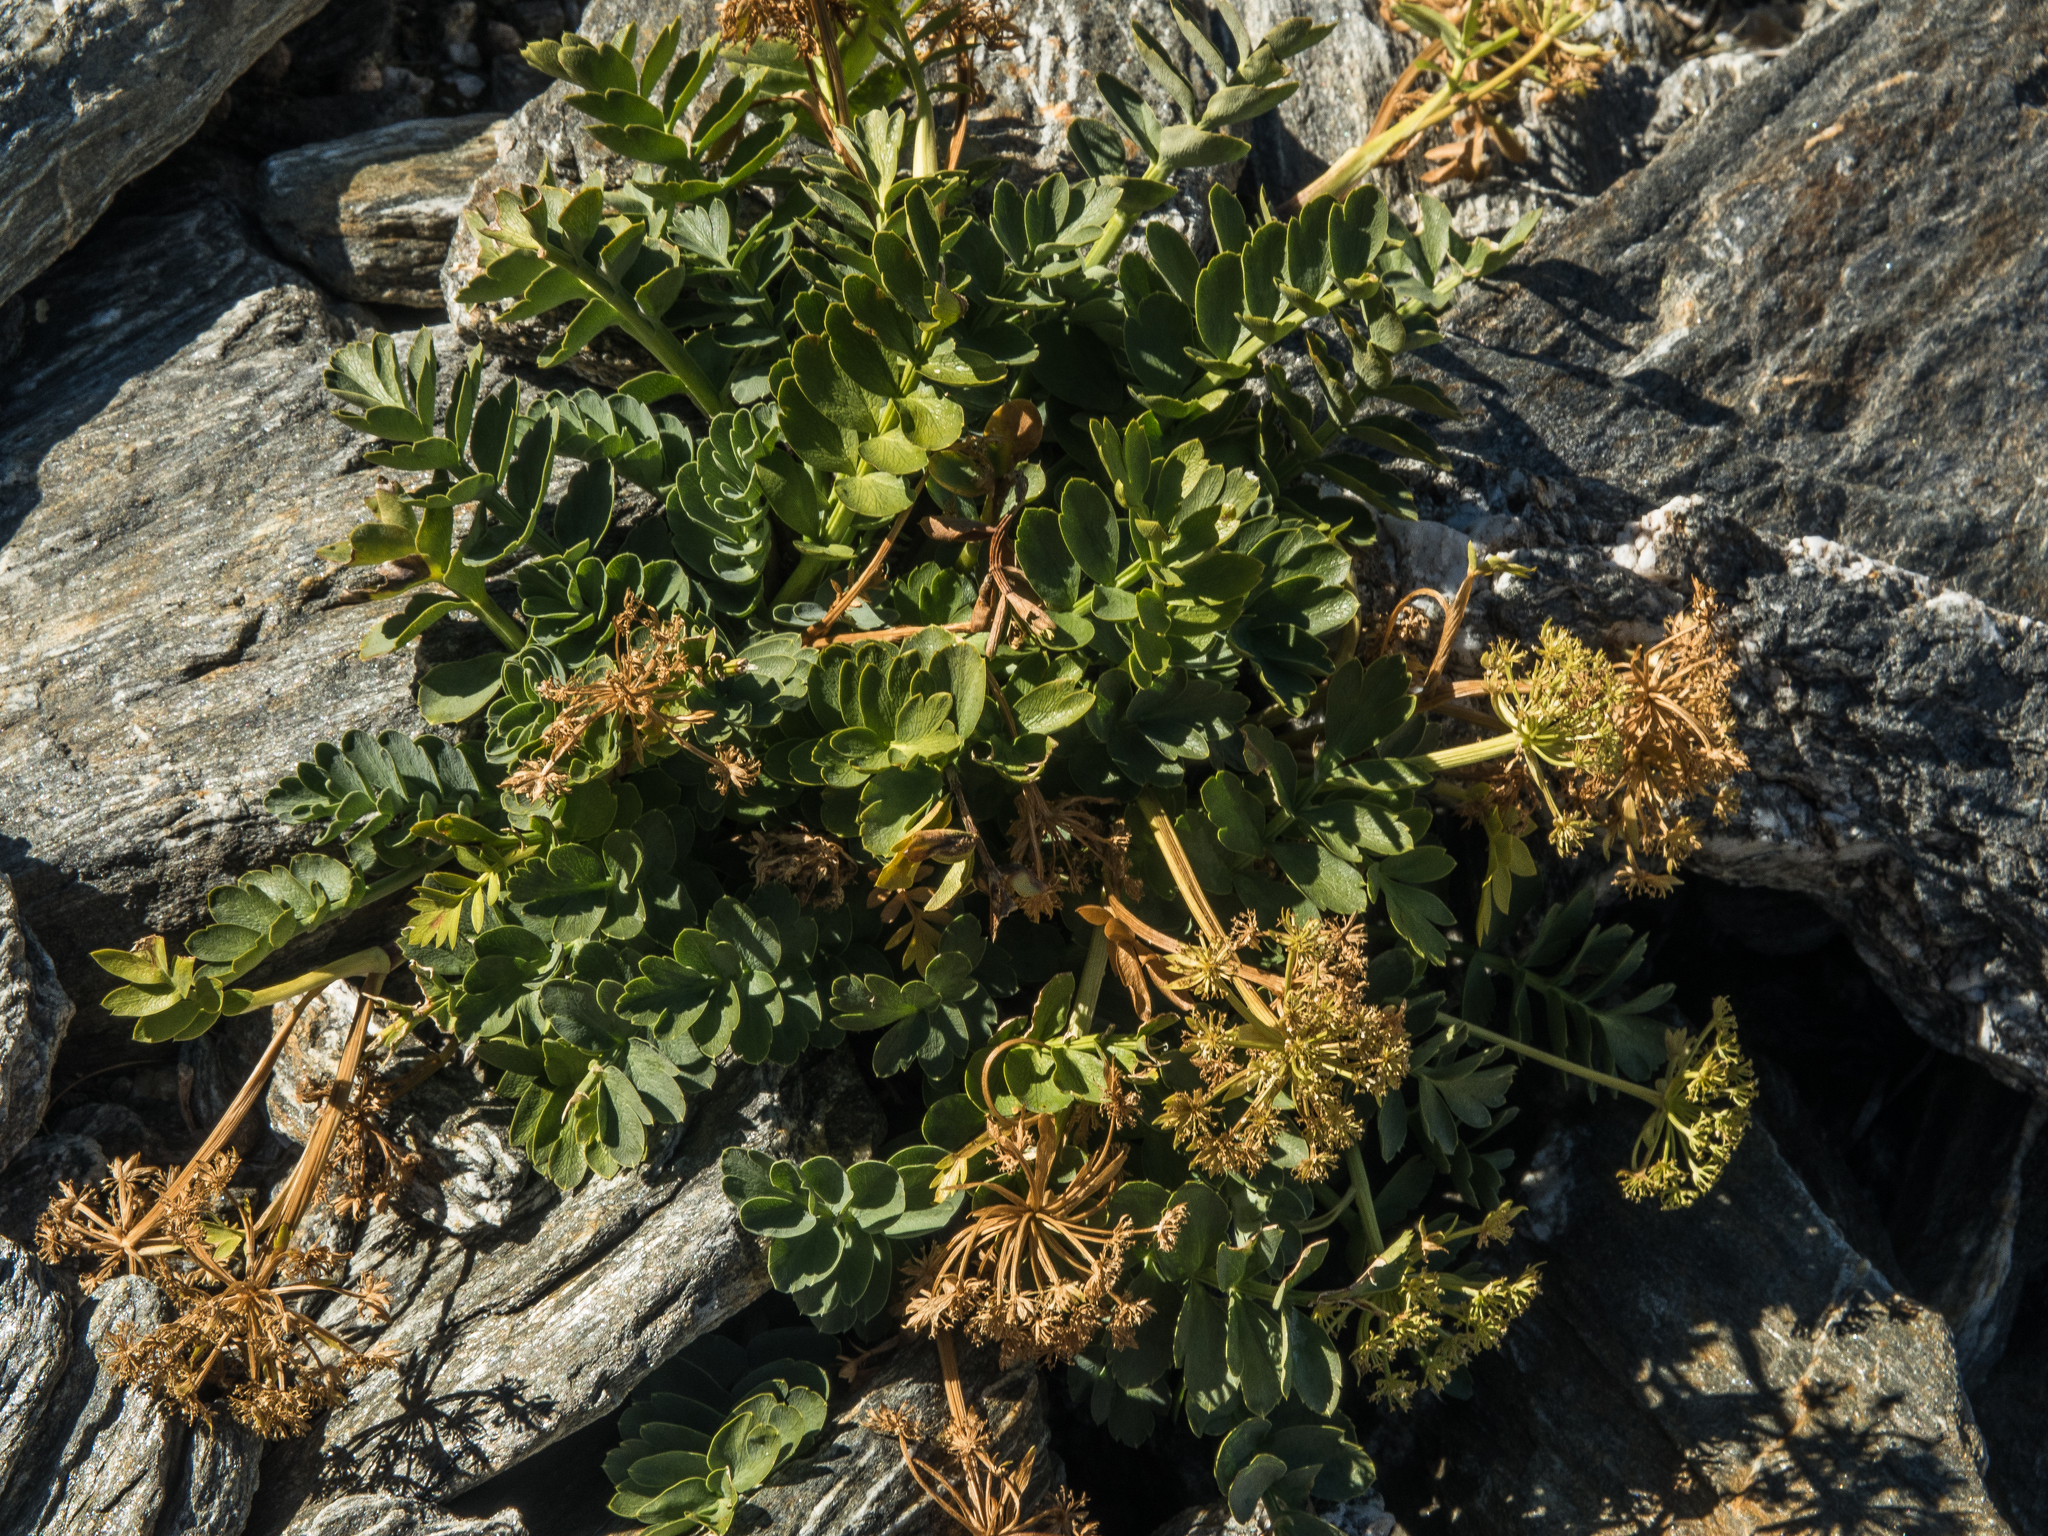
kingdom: Plantae
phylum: Tracheophyta
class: Magnoliopsida
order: Apiales
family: Apiaceae
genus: Anisotome
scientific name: Anisotome pilifera
